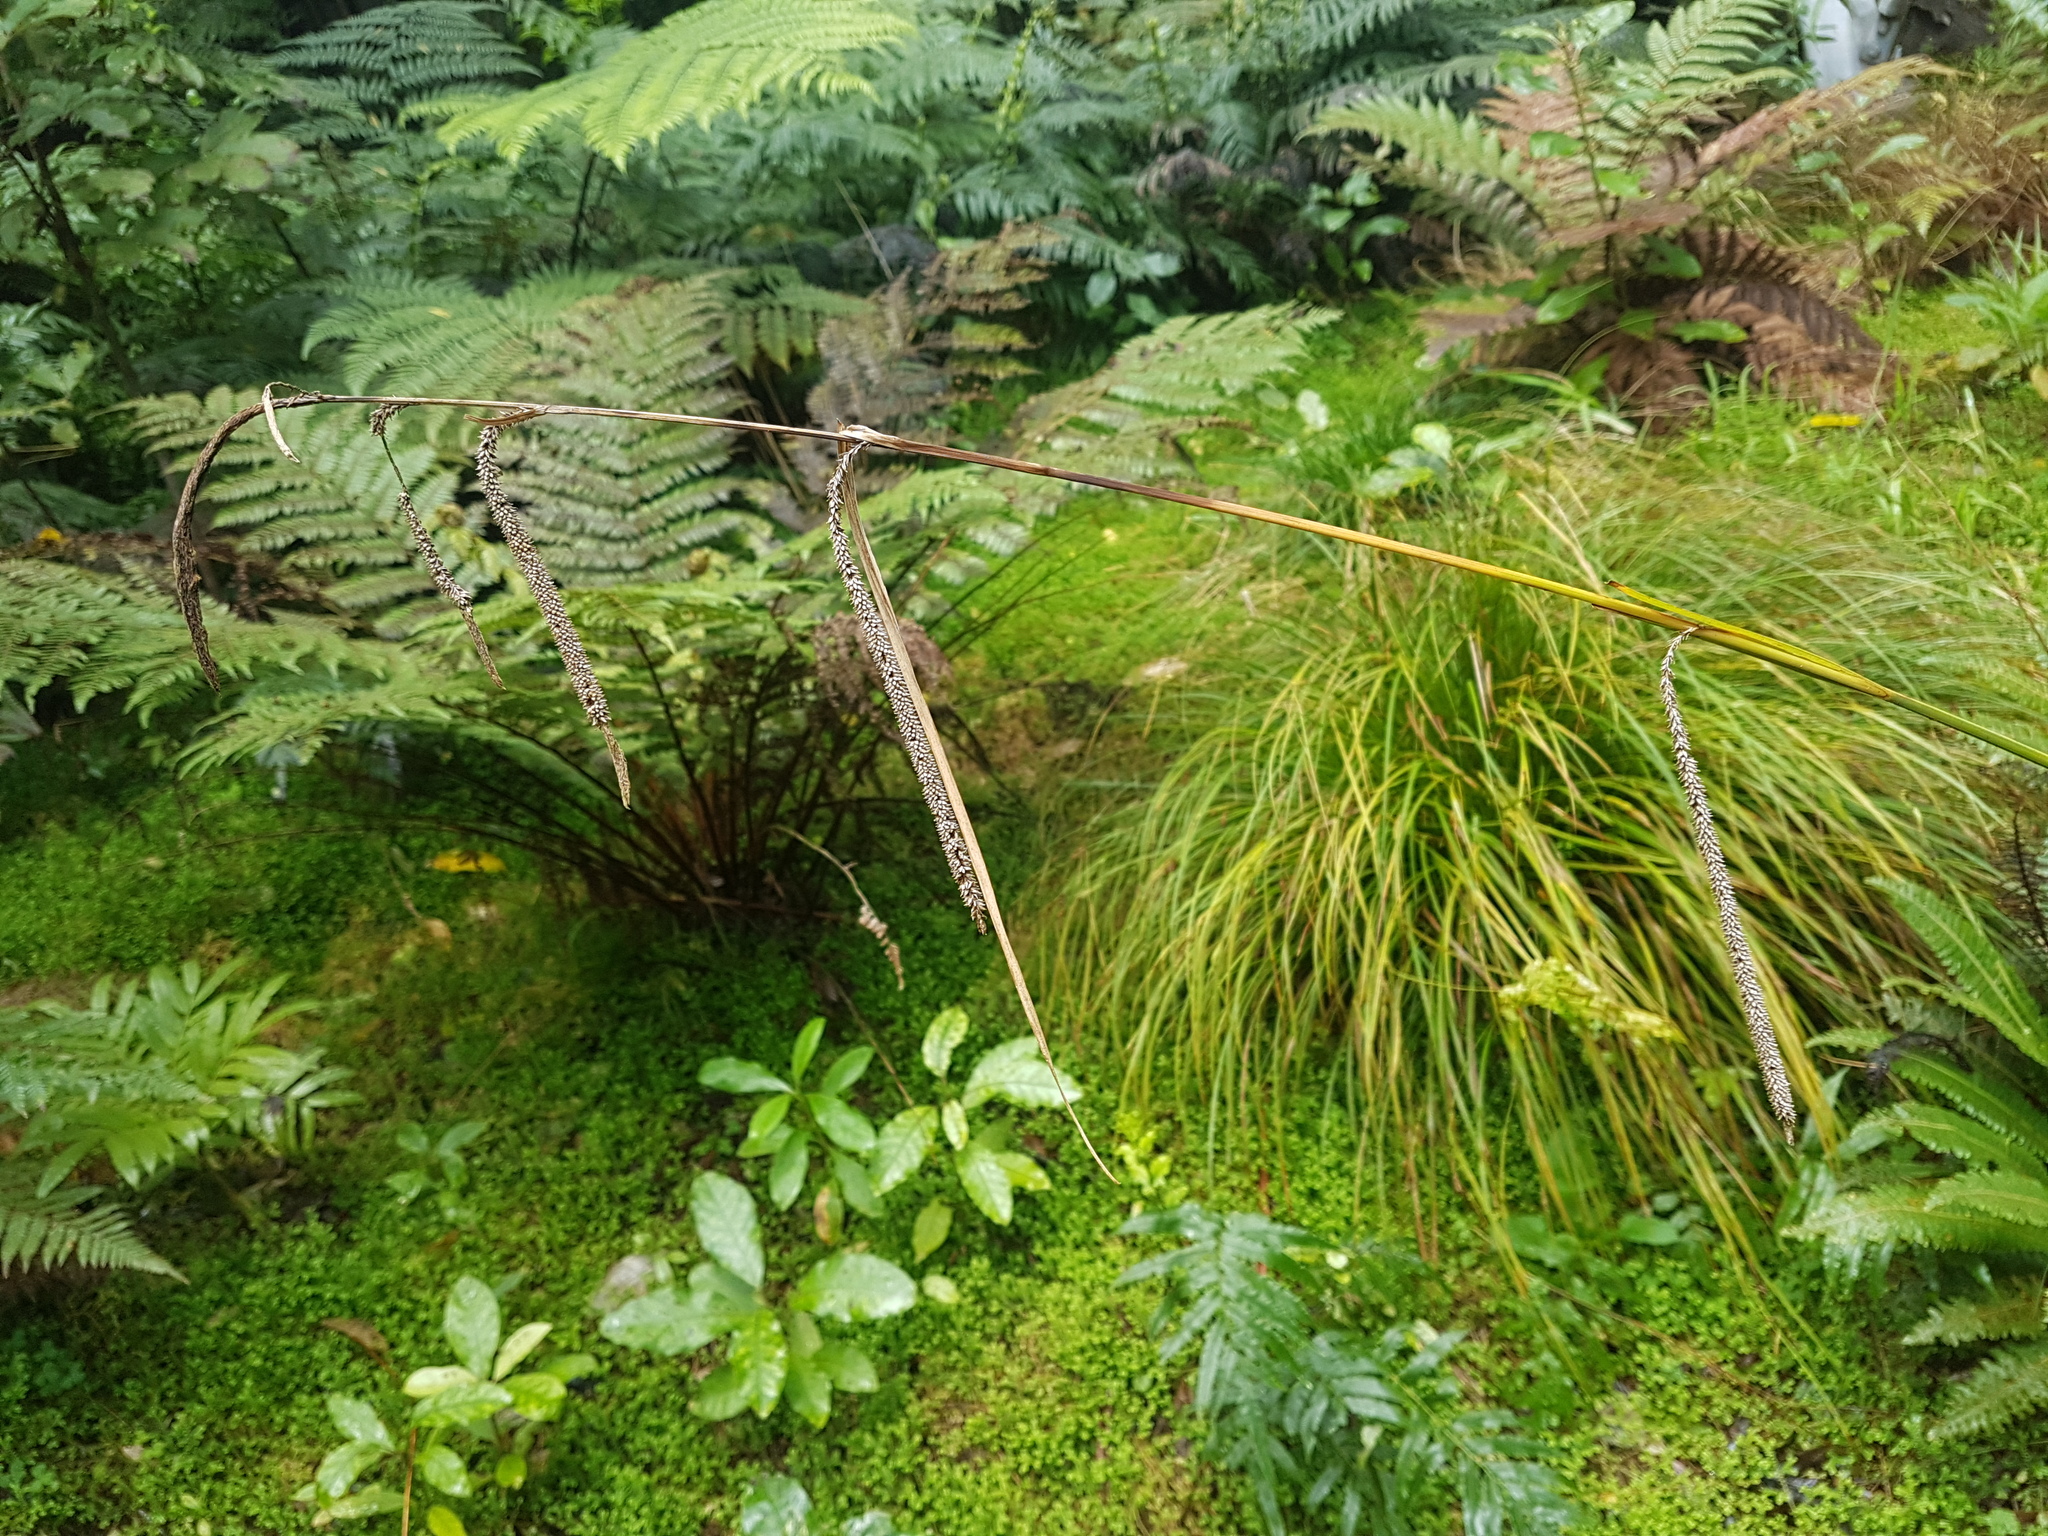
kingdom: Plantae
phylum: Tracheophyta
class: Liliopsida
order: Poales
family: Cyperaceae
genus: Carex
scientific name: Carex pendula
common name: Pendulous sedge
